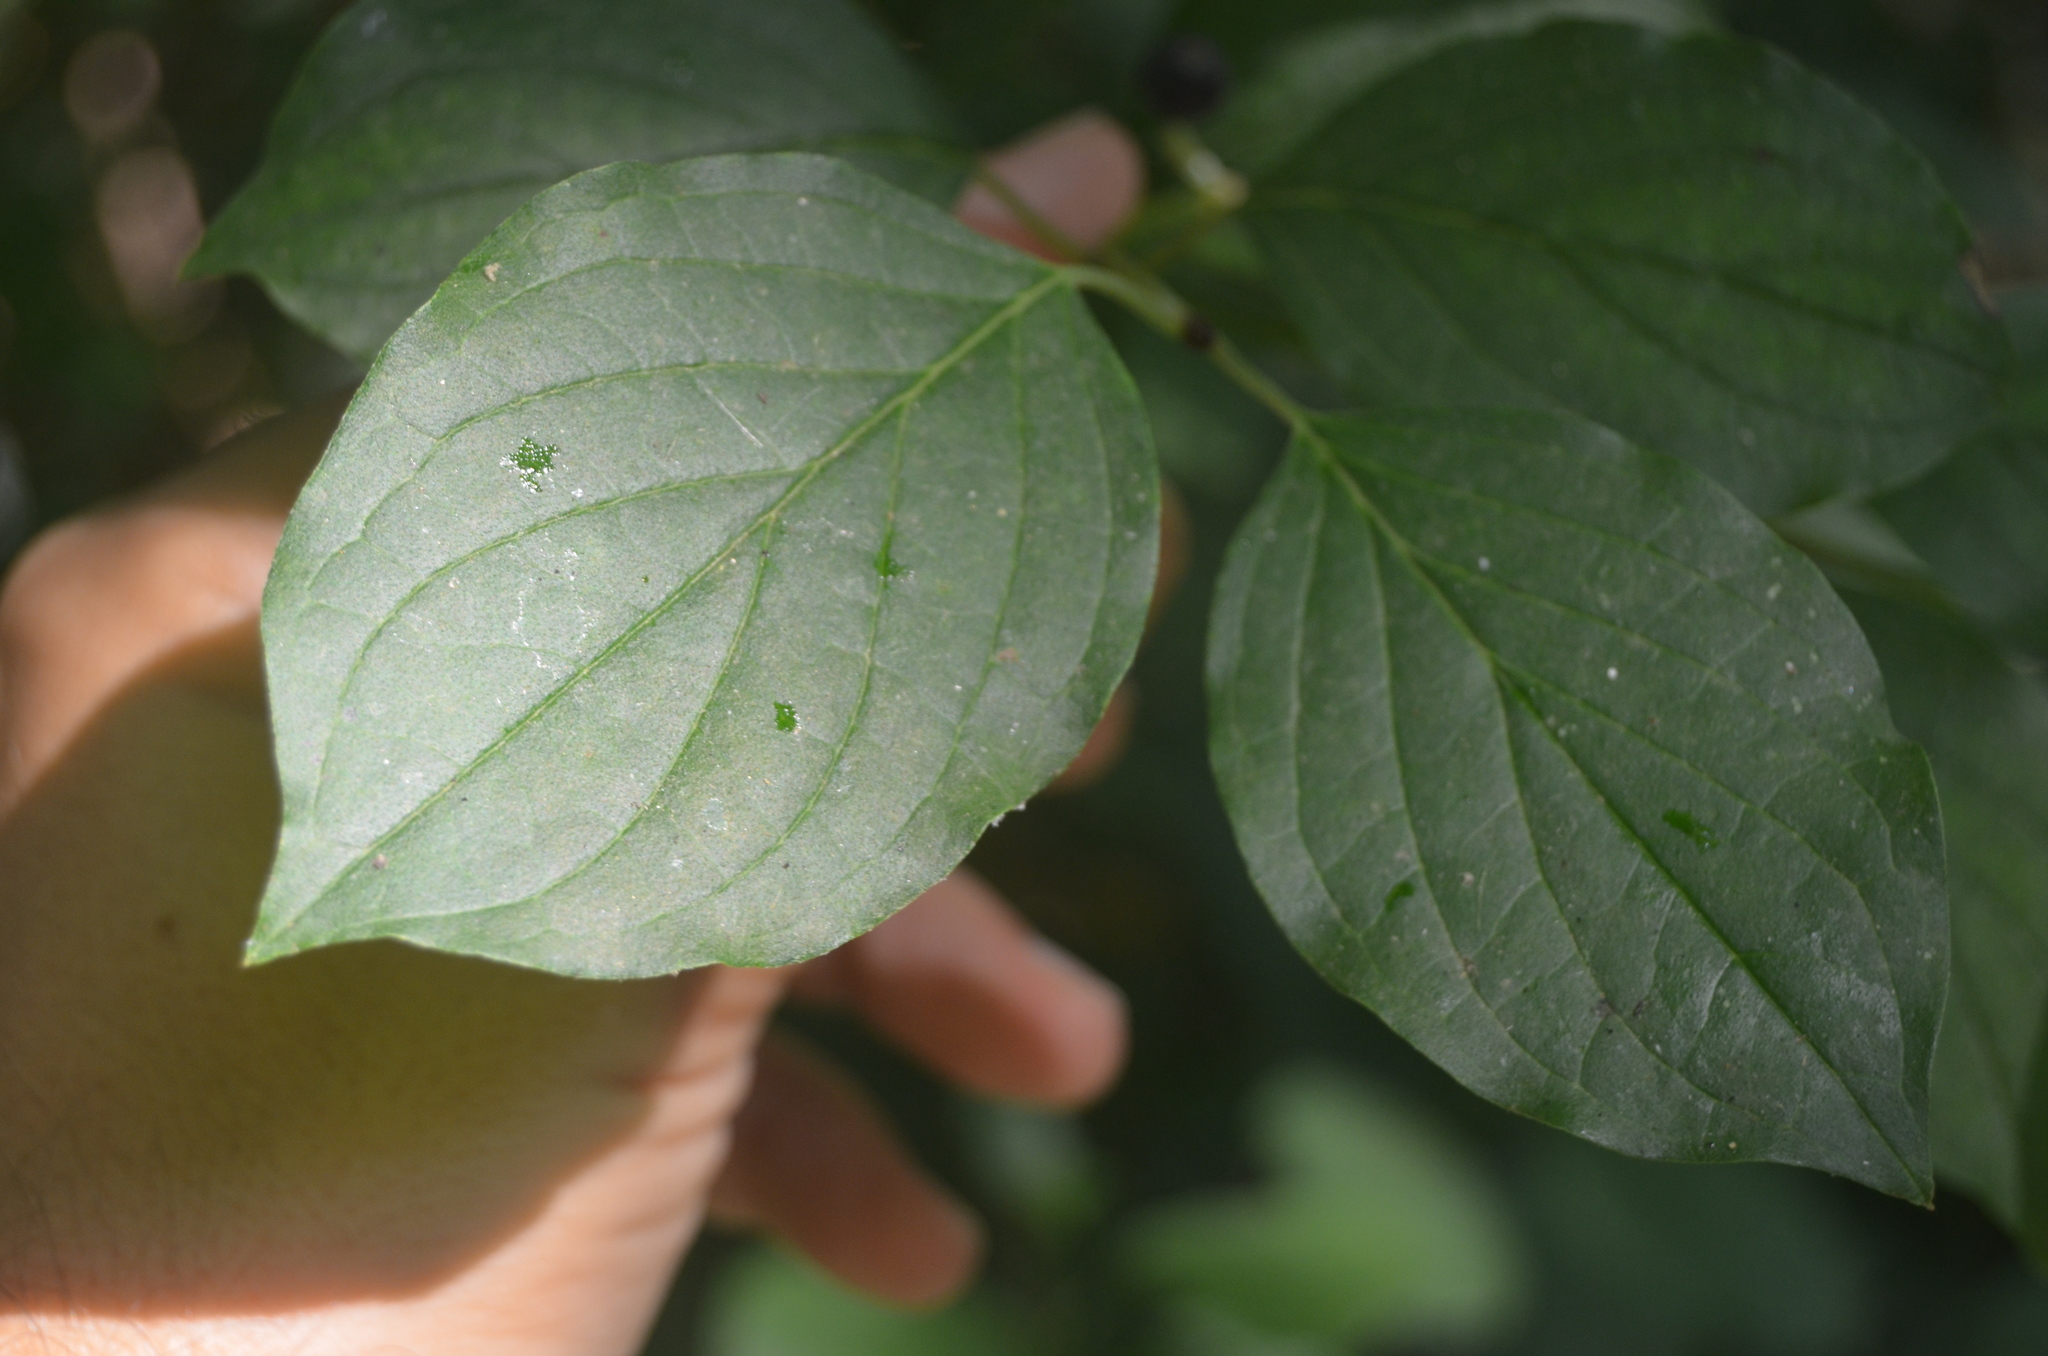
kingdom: Plantae
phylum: Tracheophyta
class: Magnoliopsida
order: Cornales
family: Cornaceae
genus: Cornus
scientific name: Cornus sanguinea
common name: Dogwood
